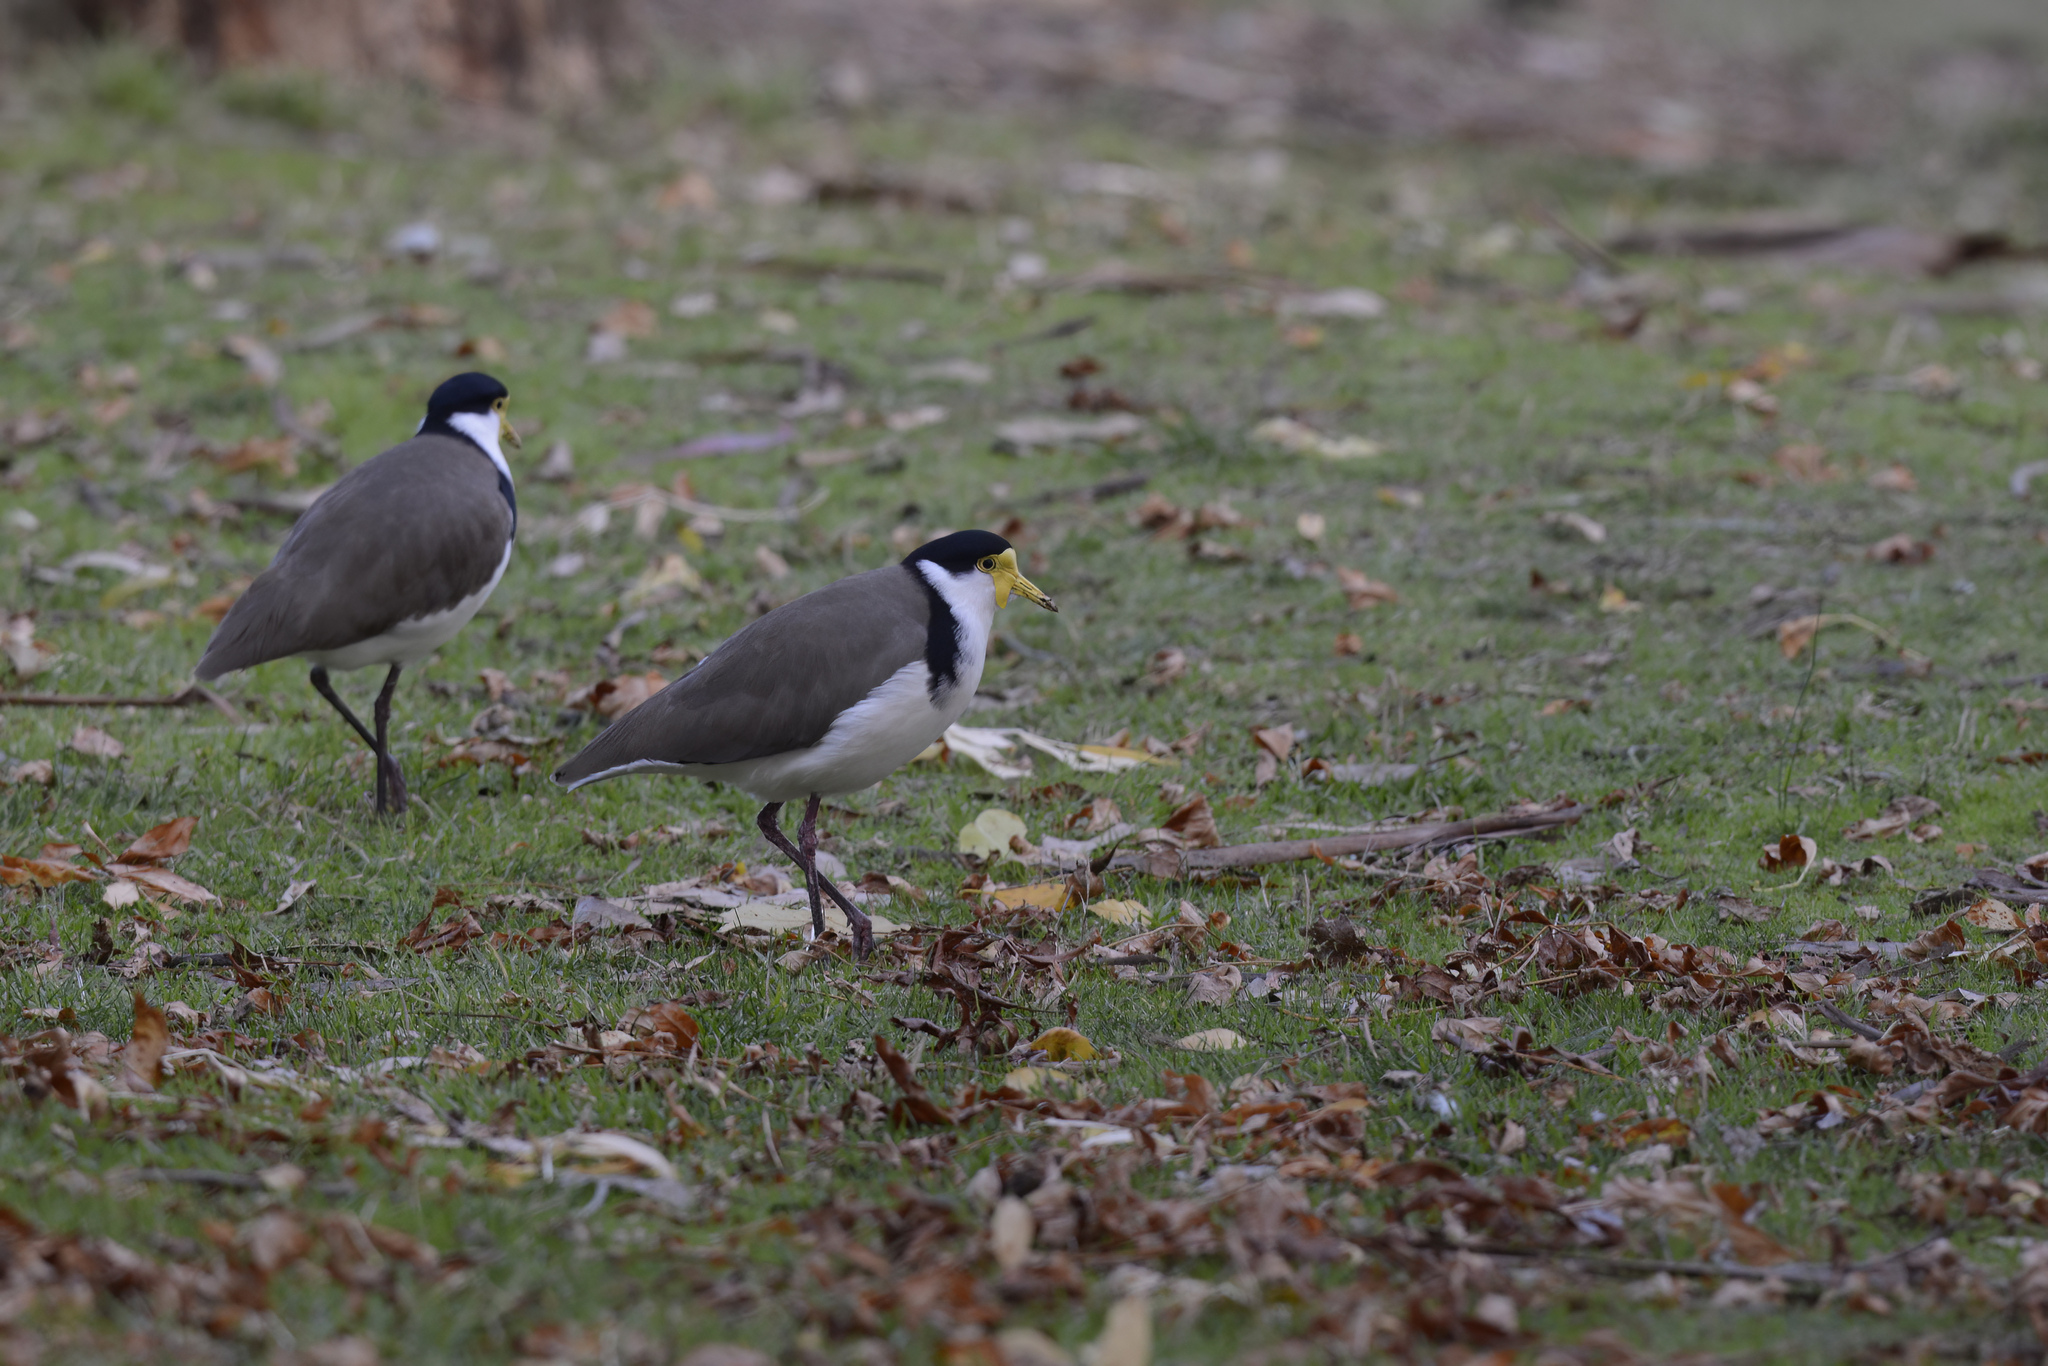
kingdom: Animalia
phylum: Chordata
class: Aves
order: Charadriiformes
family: Charadriidae
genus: Vanellus
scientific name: Vanellus miles
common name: Masked lapwing
